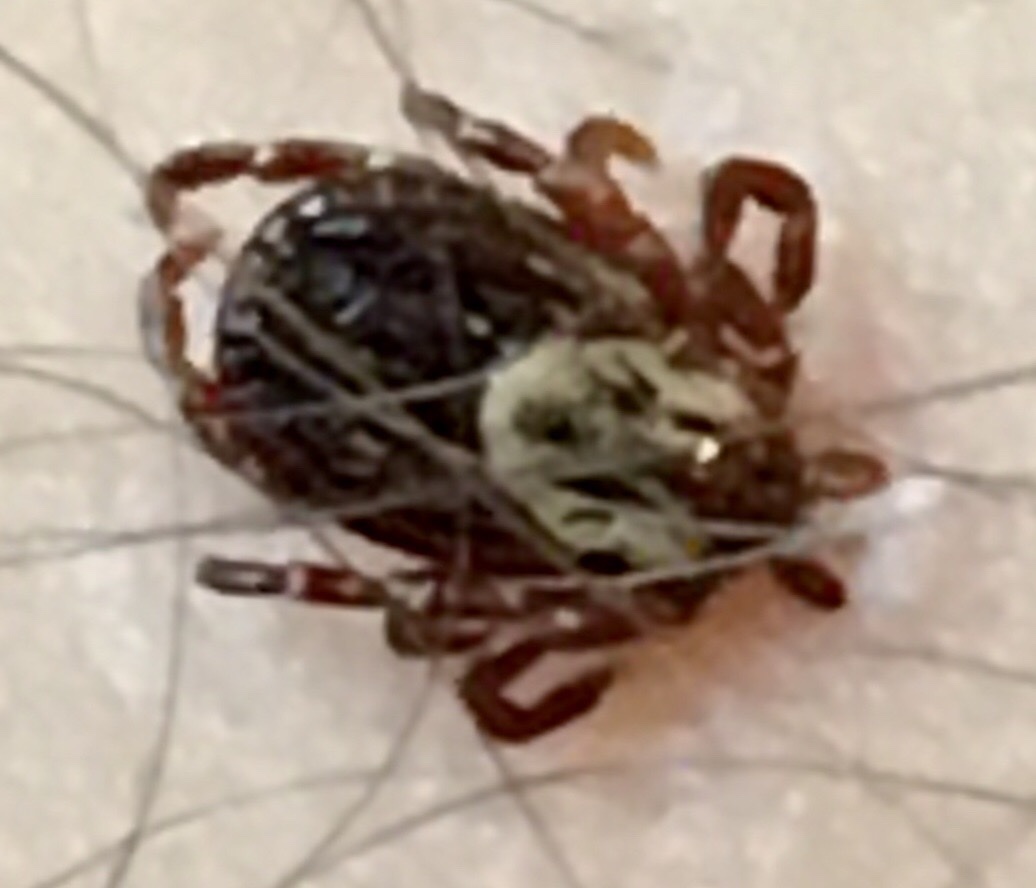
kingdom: Animalia
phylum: Arthropoda
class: Arachnida
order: Ixodida
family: Ixodidae
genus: Dermacentor
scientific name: Dermacentor variabilis
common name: American dog tick
